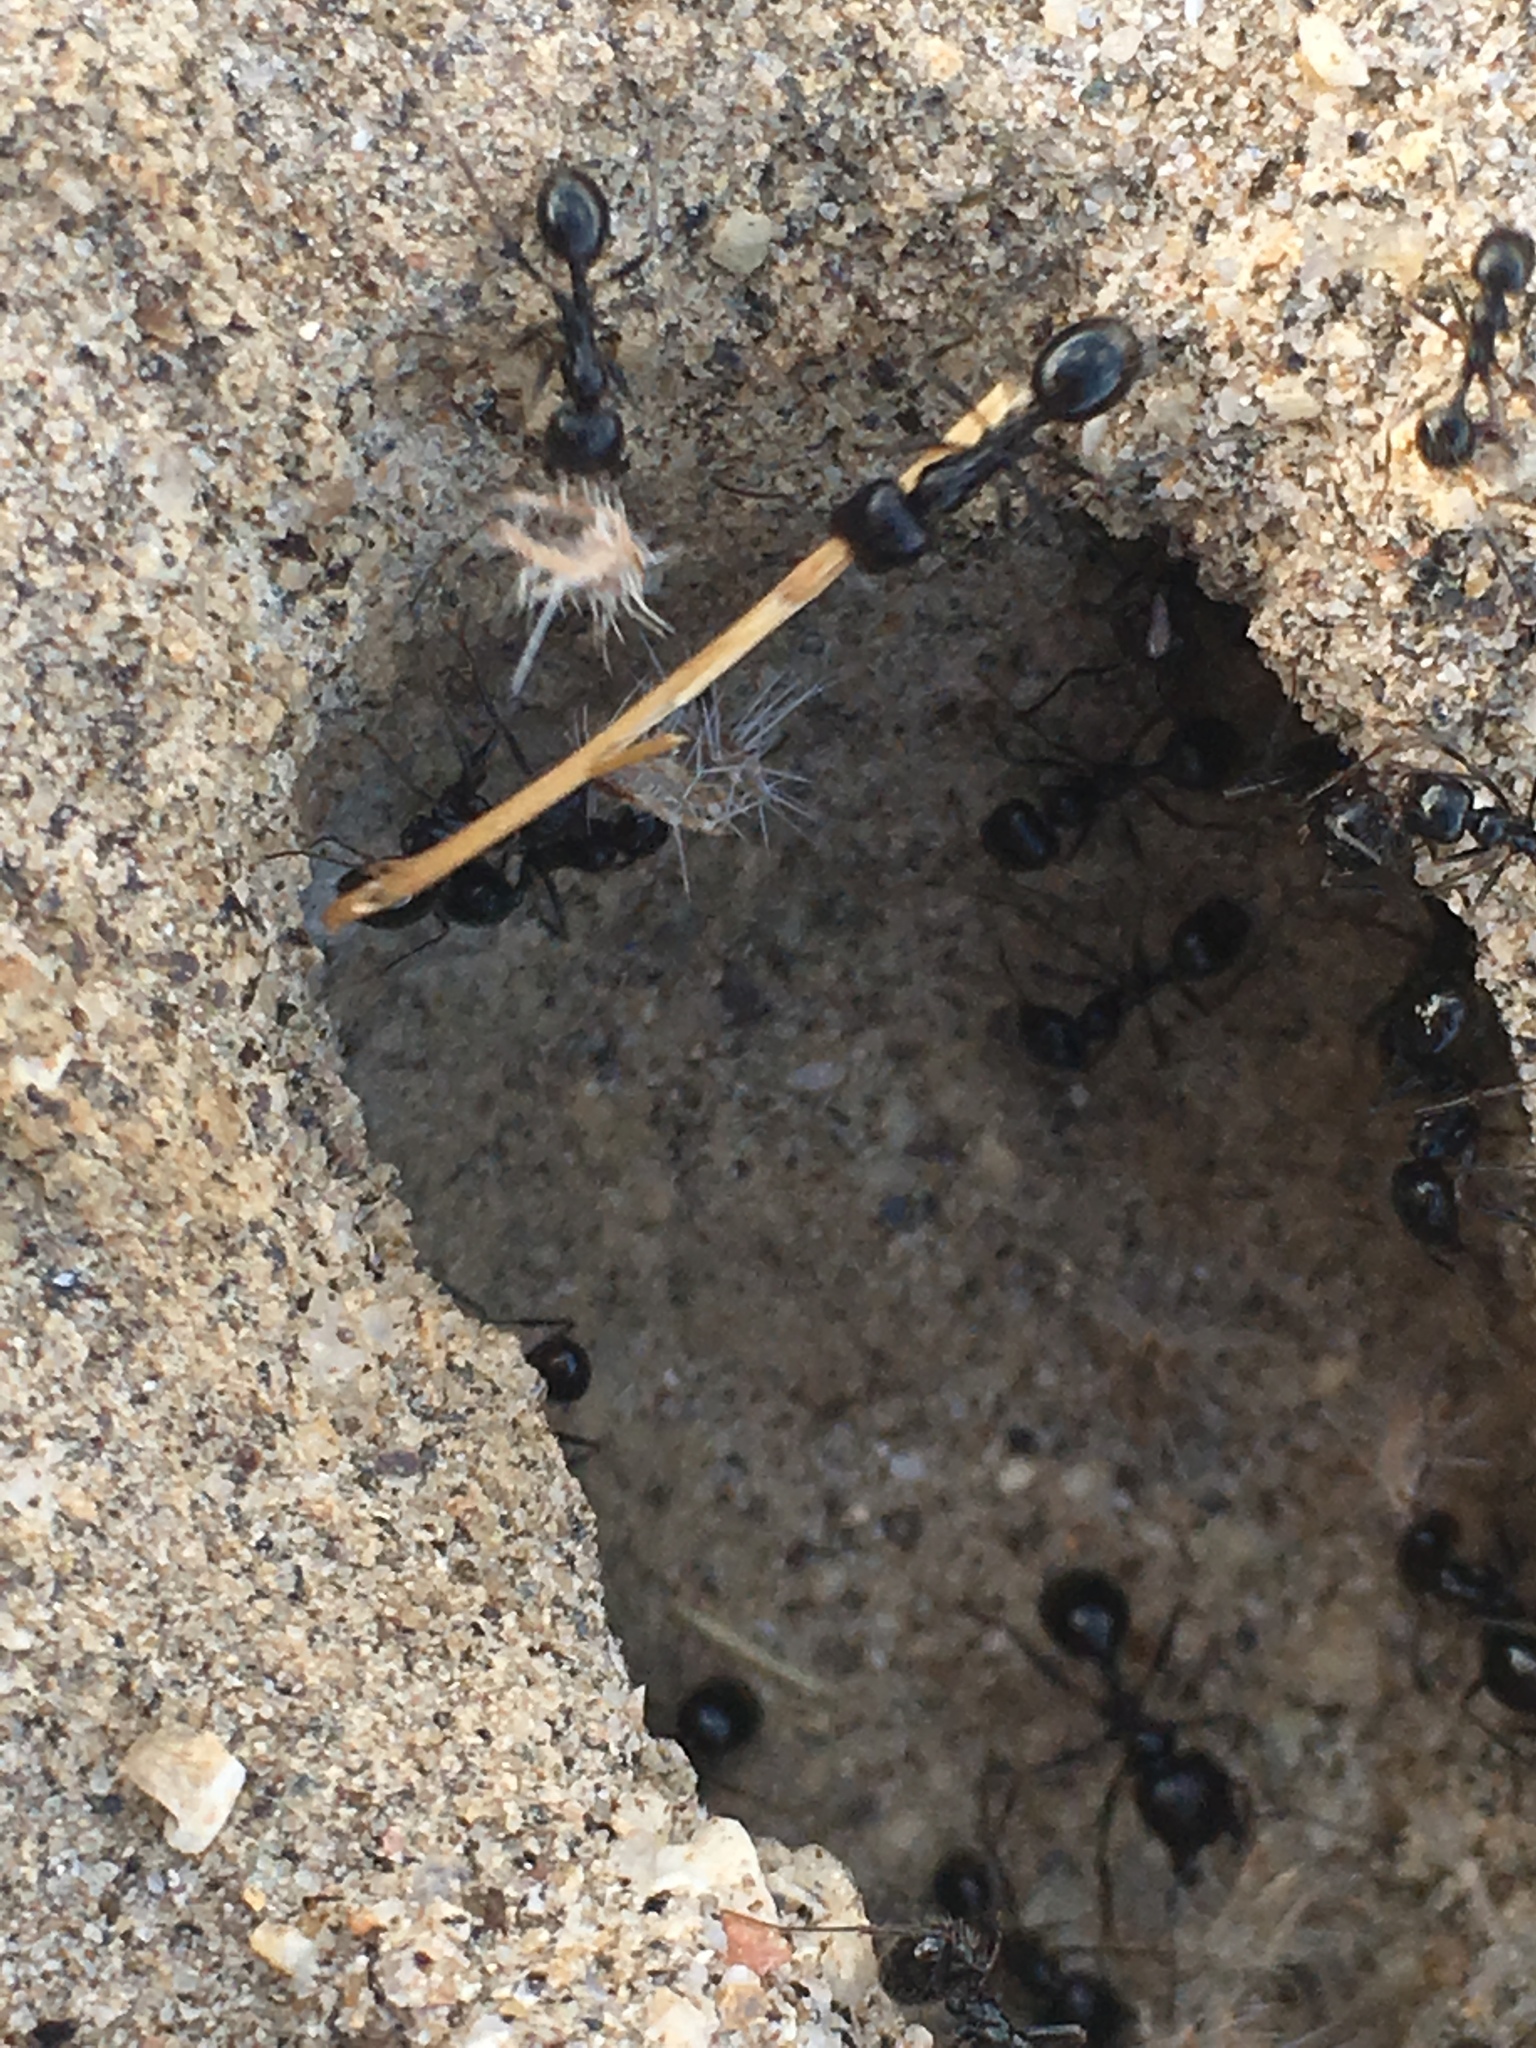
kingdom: Animalia
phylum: Arthropoda
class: Insecta
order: Hymenoptera
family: Formicidae
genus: Messor
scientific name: Messor pergandei
